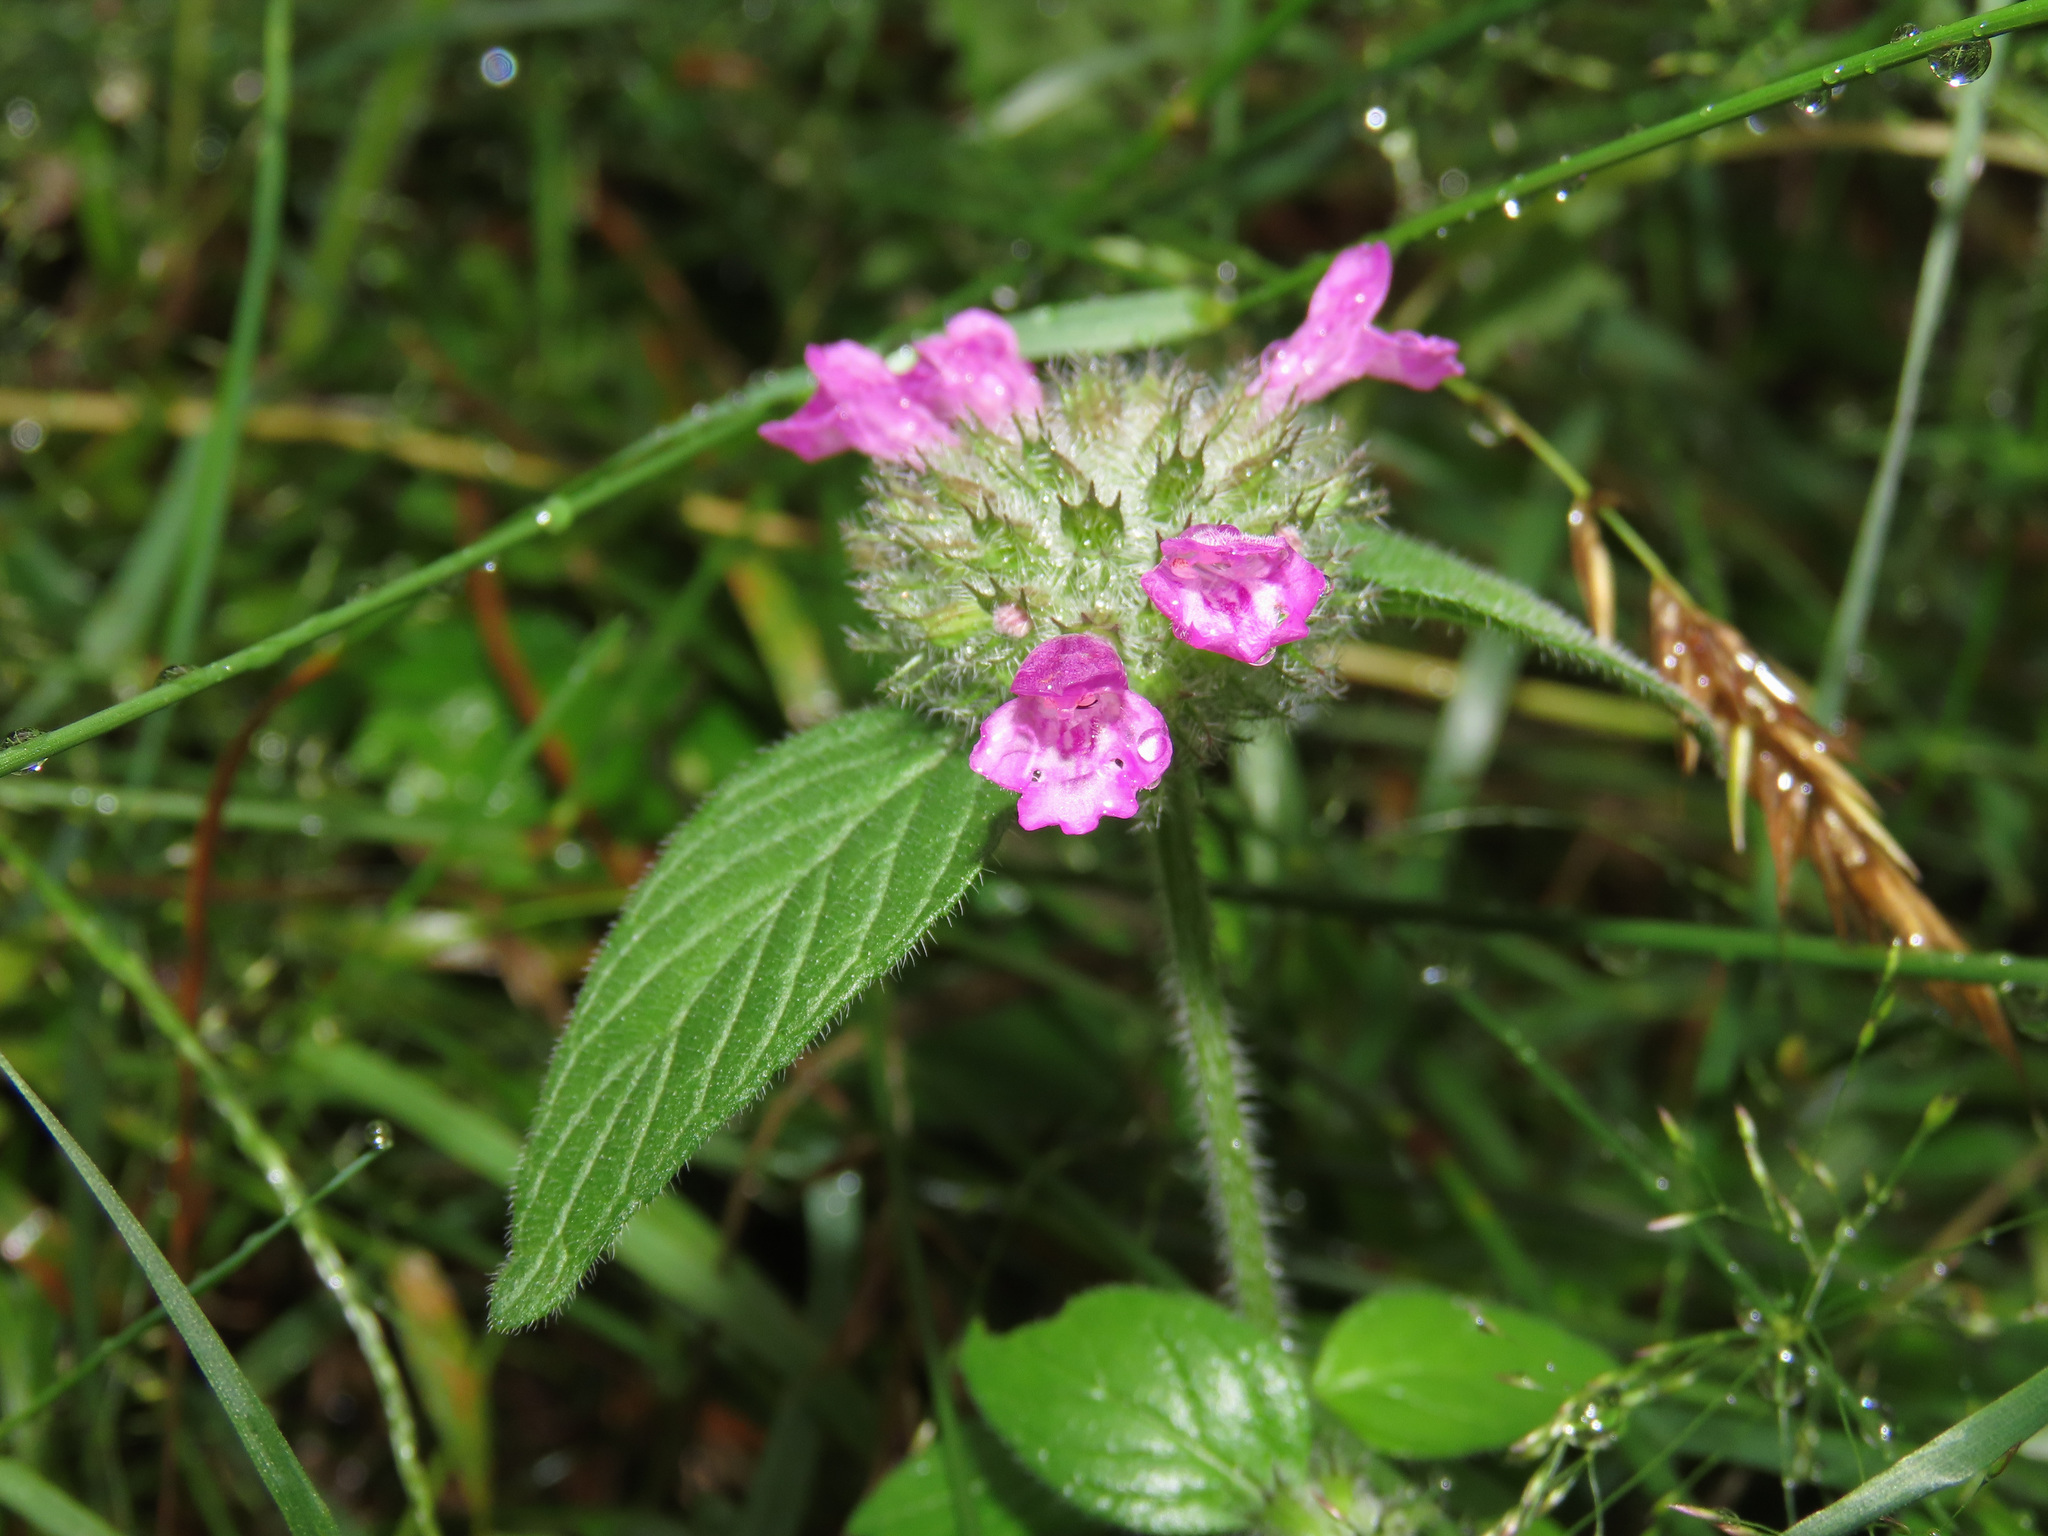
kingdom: Plantae
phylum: Tracheophyta
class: Magnoliopsida
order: Lamiales
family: Lamiaceae
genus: Clinopodium
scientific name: Clinopodium vulgare
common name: Wild basil
